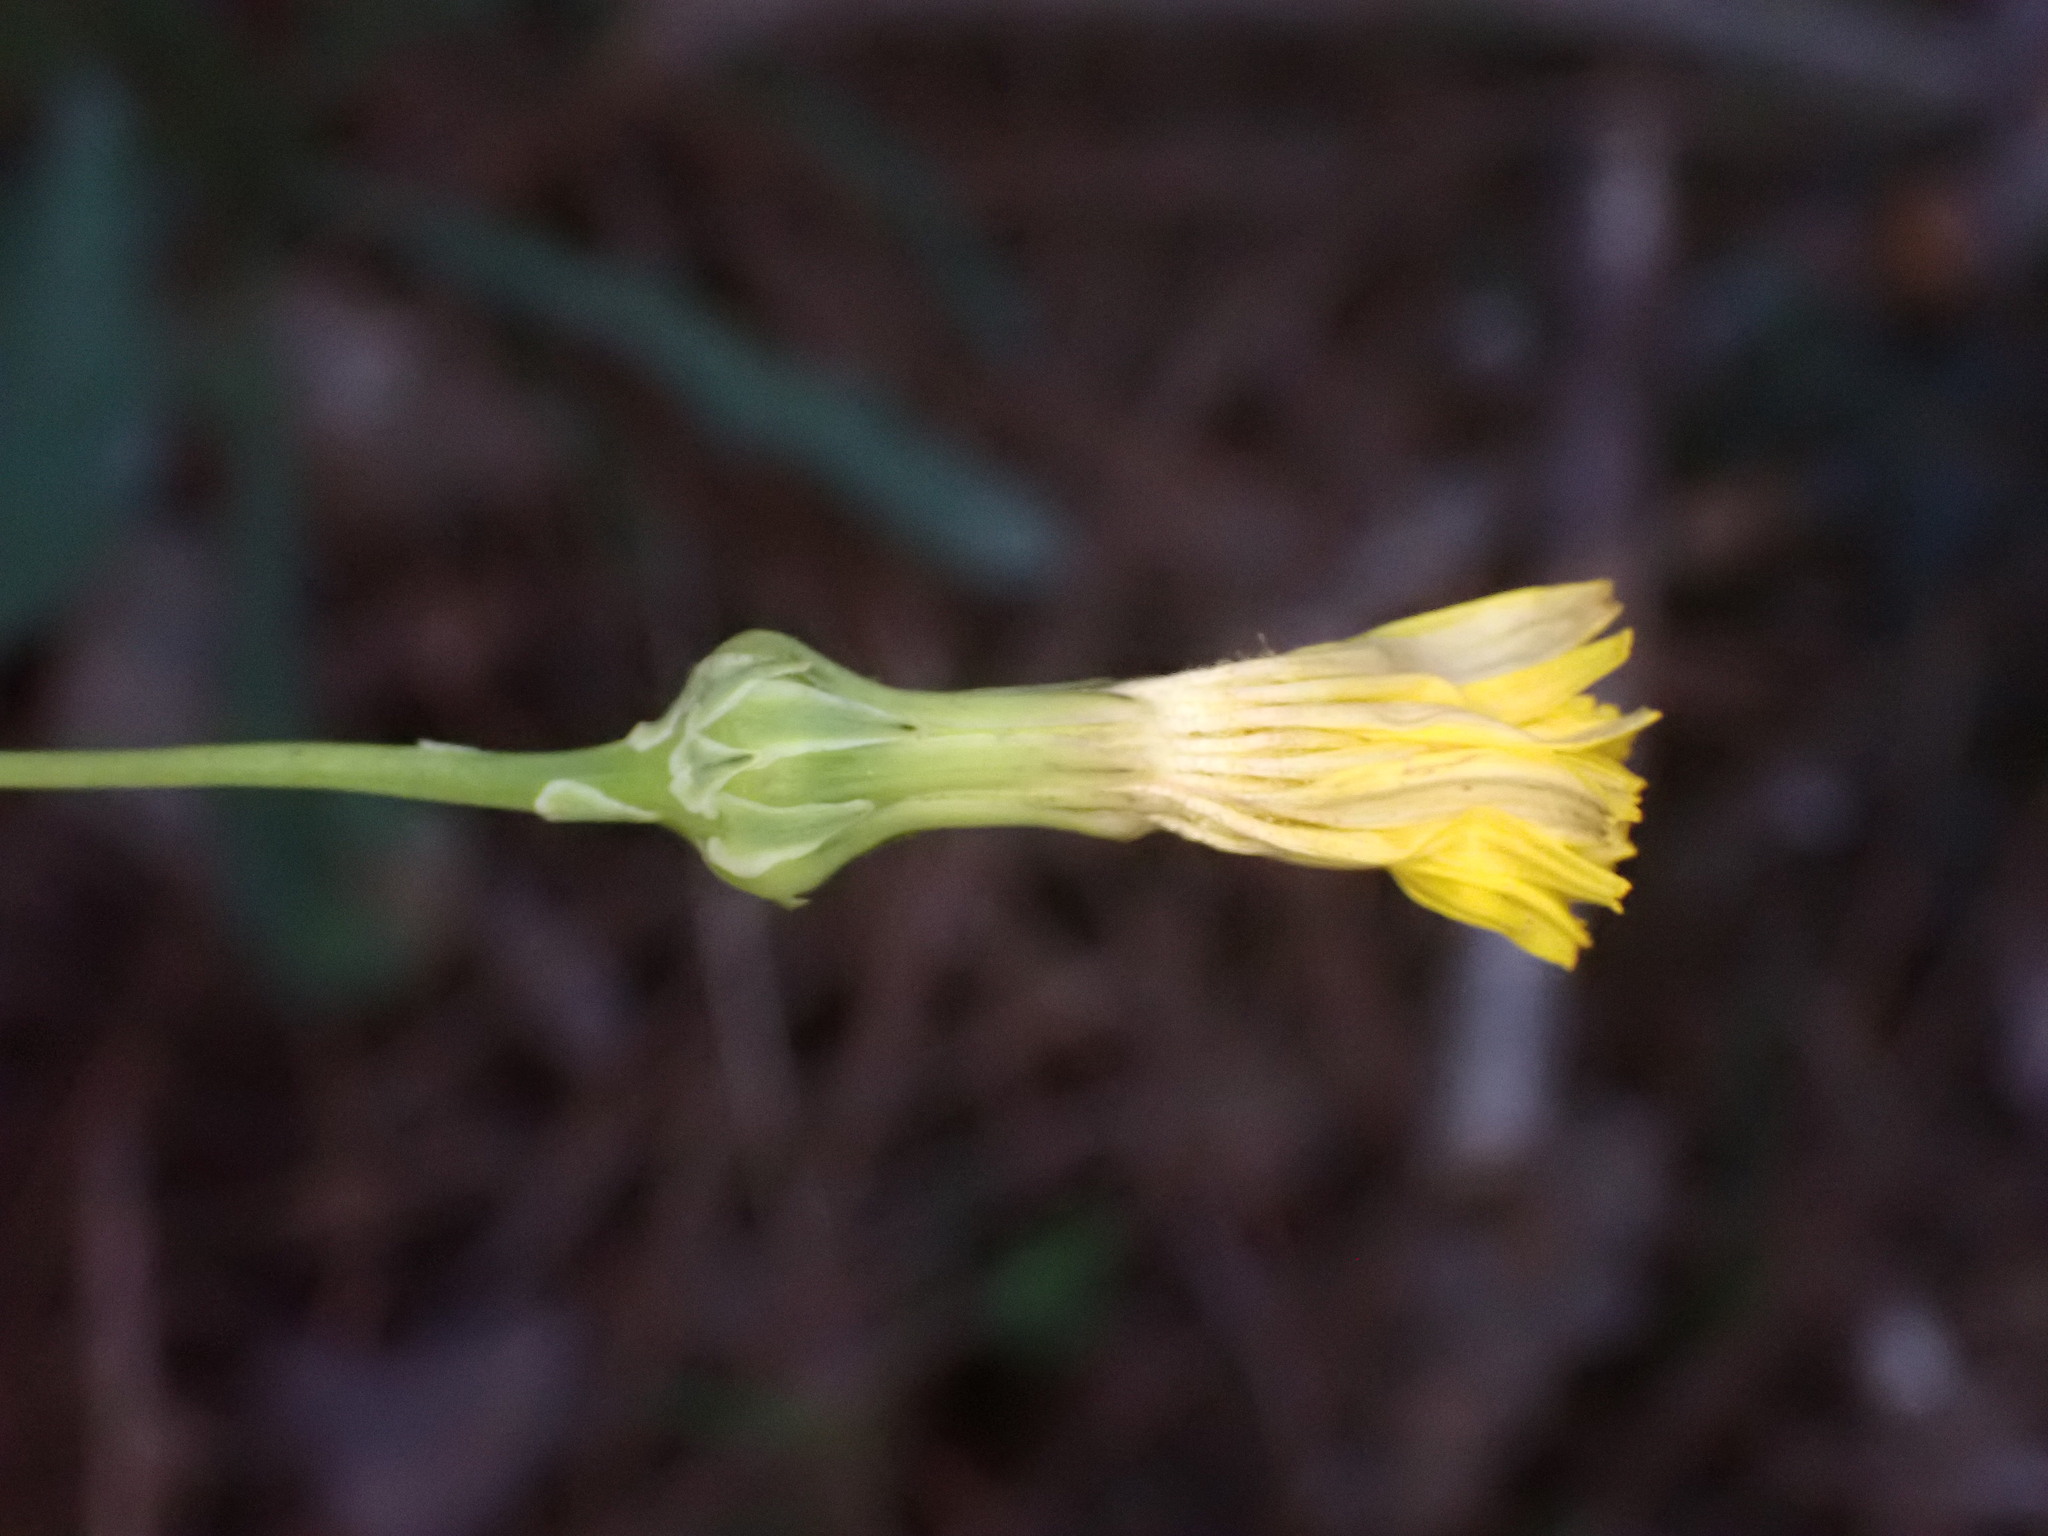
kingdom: Plantae
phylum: Tracheophyta
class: Magnoliopsida
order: Asterales
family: Asteraceae
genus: Reichardia
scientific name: Reichardia picroides
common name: Common brighteyes
